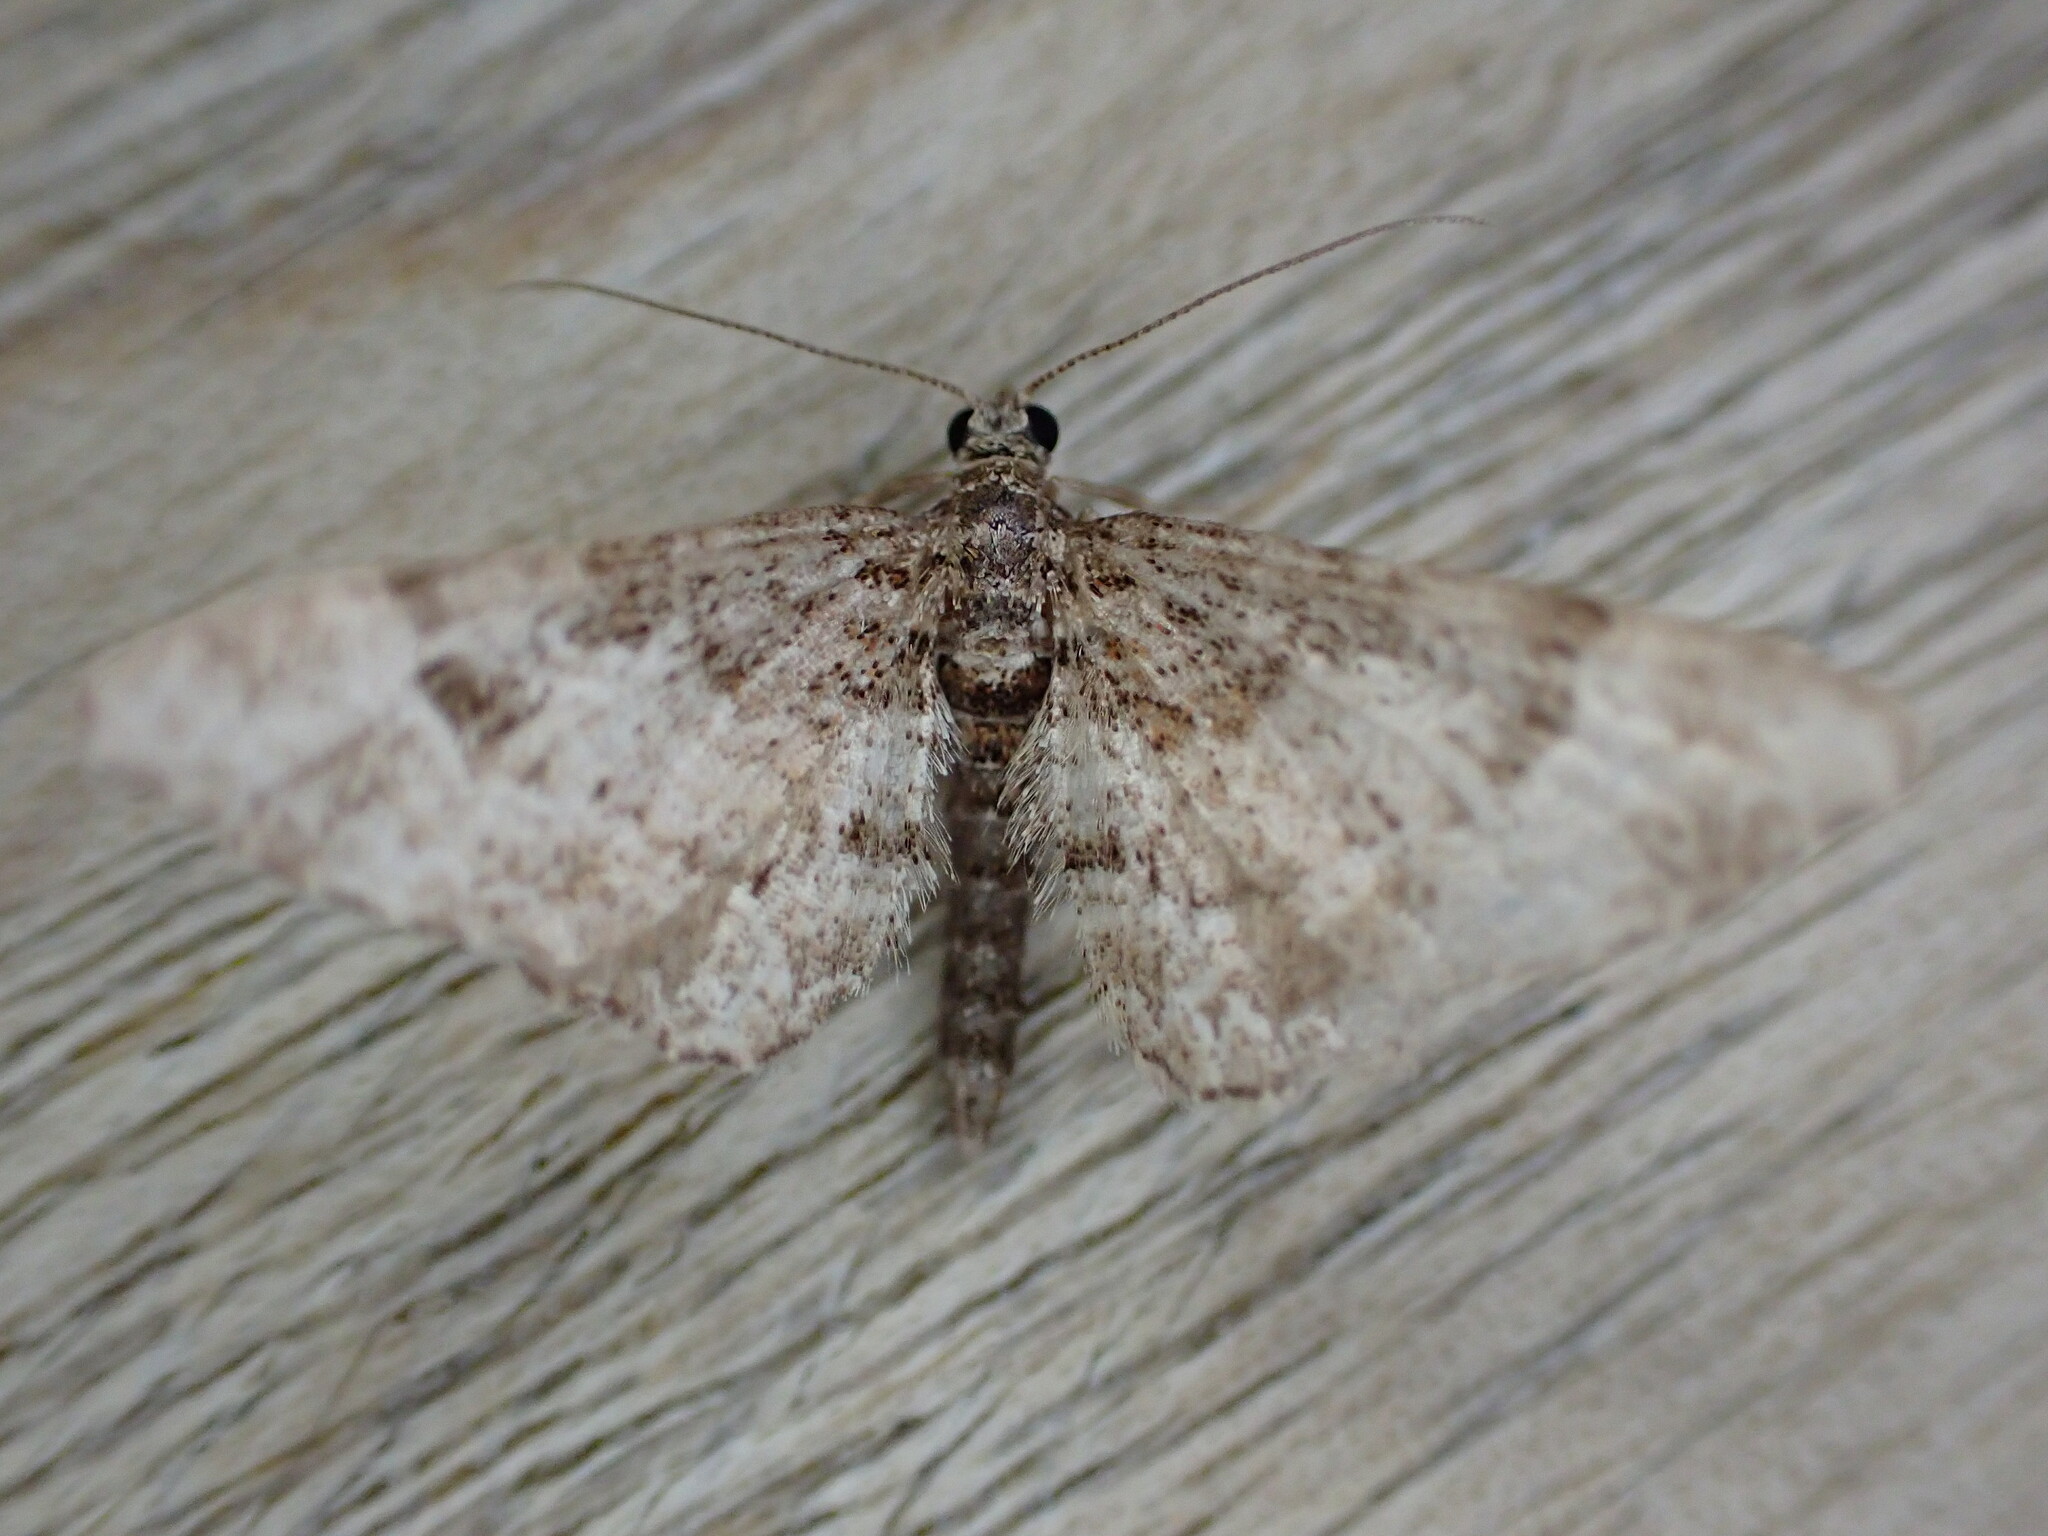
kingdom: Animalia
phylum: Arthropoda
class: Insecta
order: Lepidoptera
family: Geometridae
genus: Gymnoscelis
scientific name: Gymnoscelis rufifasciata
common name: Double-striped pug
